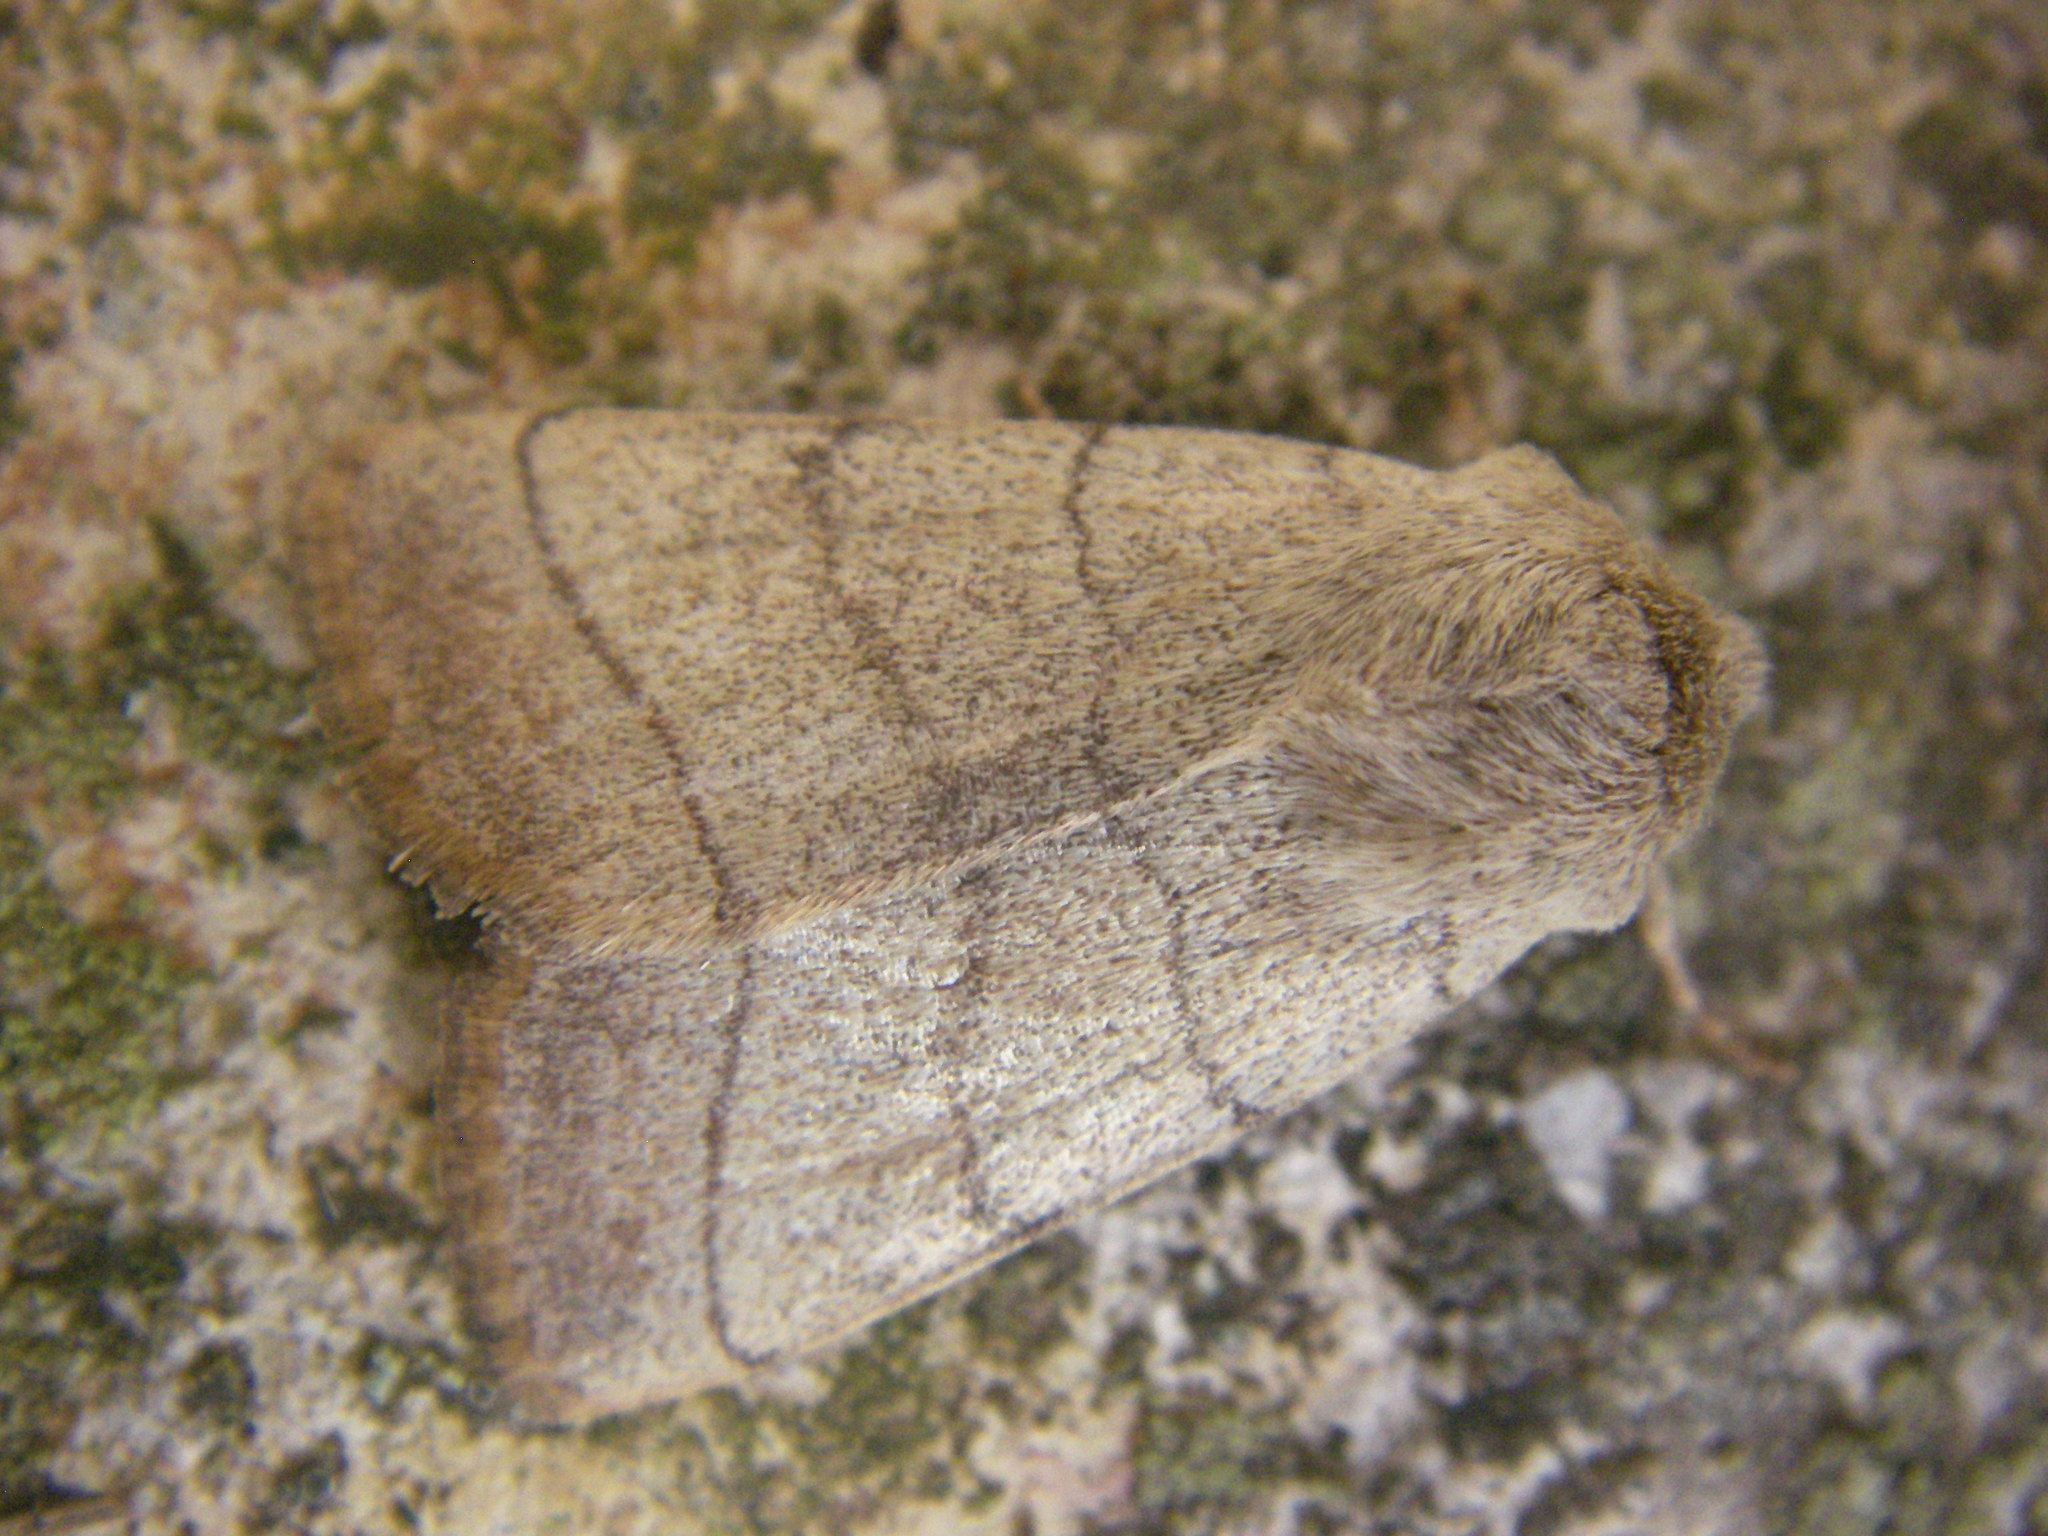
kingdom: Animalia
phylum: Arthropoda
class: Insecta
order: Lepidoptera
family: Noctuidae
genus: Charanyca
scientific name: Charanyca trigrammica
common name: Treble lines
